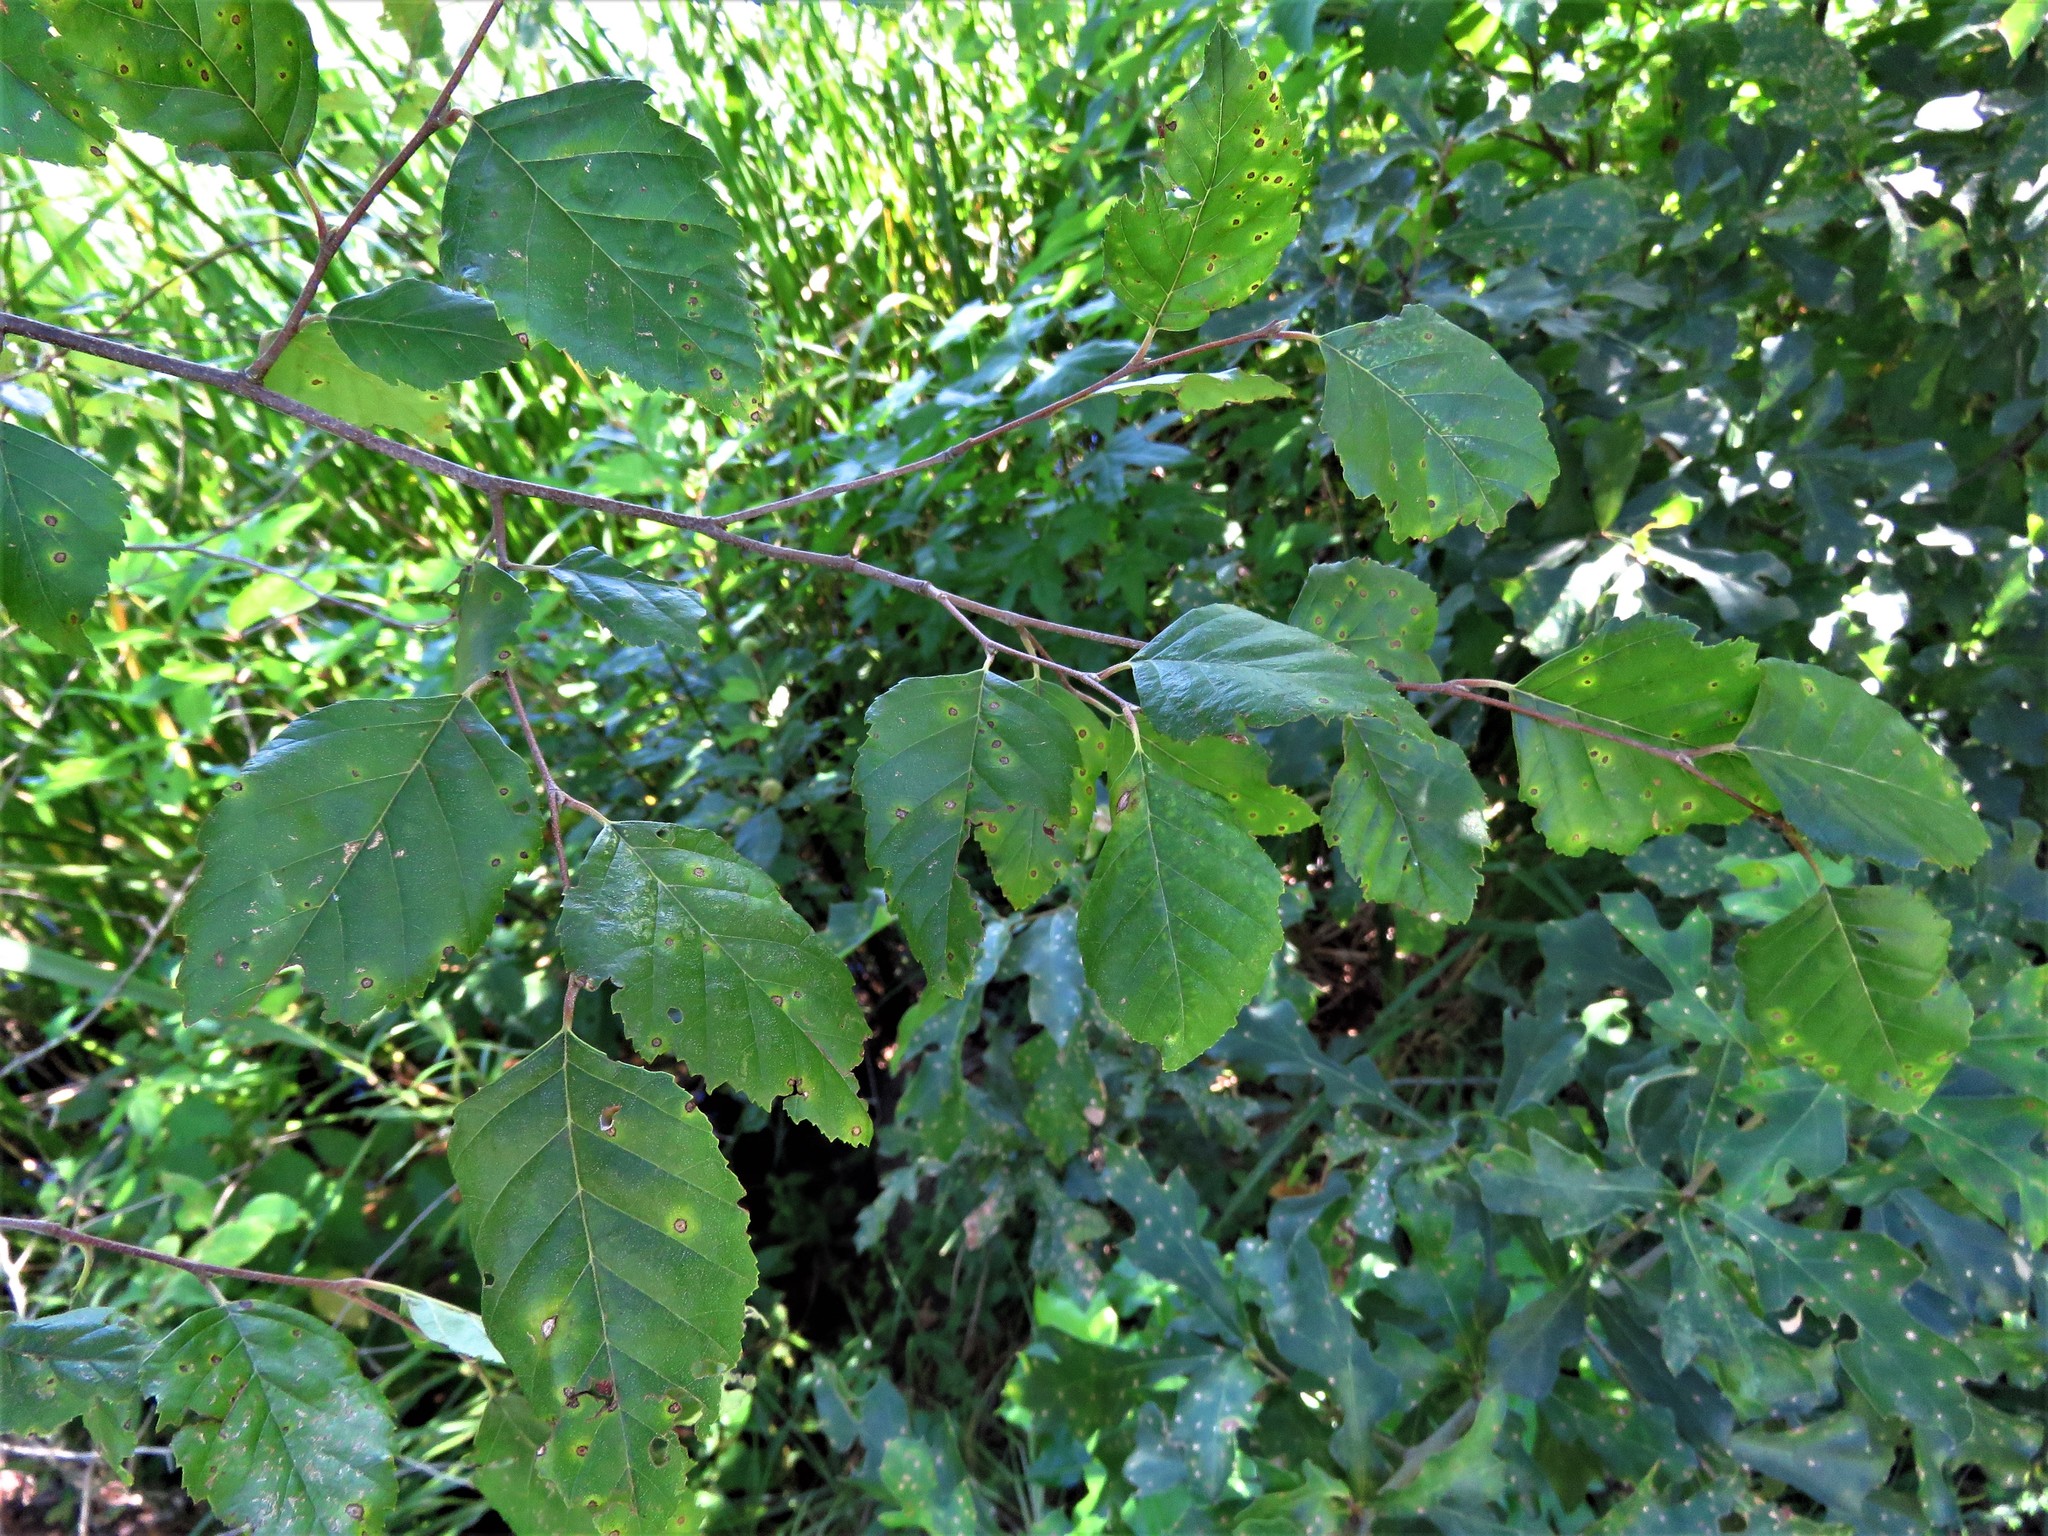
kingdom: Plantae
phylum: Tracheophyta
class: Magnoliopsida
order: Fagales
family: Betulaceae
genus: Betula
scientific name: Betula nigra
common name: Black birch
